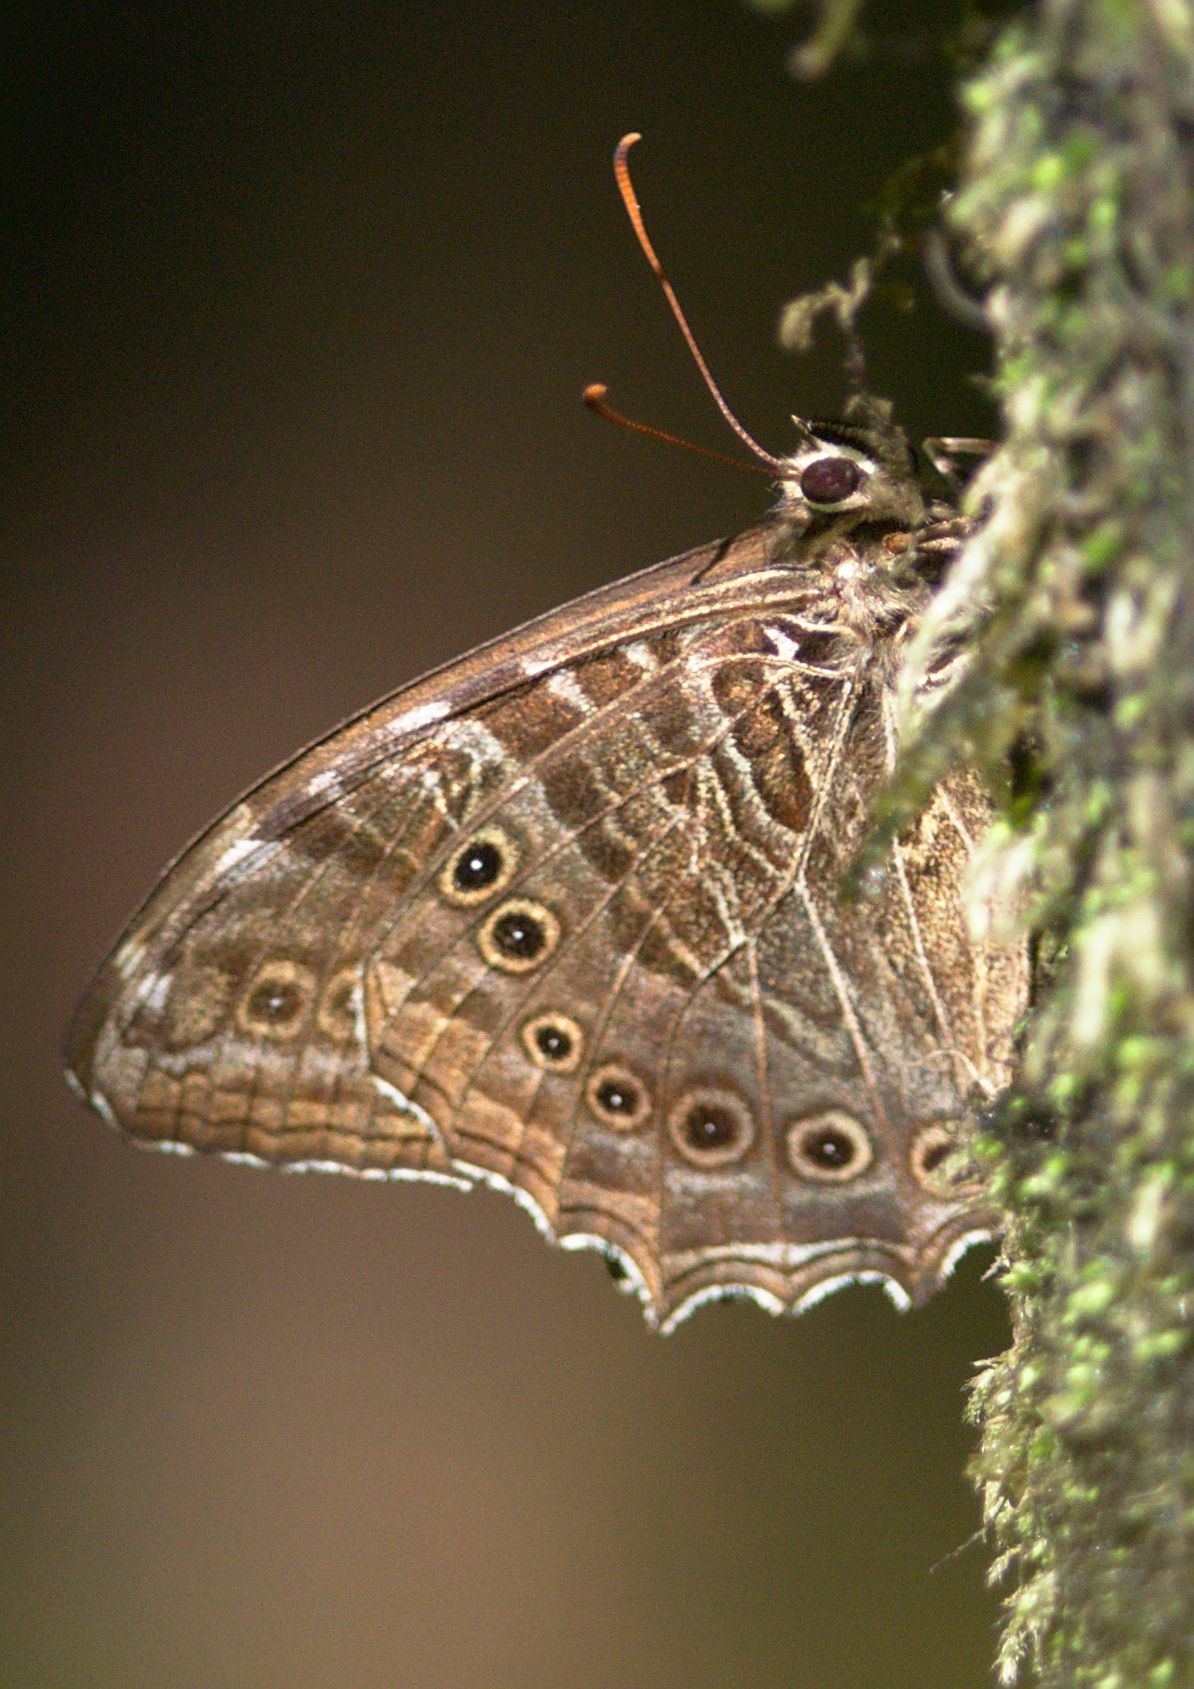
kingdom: Animalia
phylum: Arthropoda
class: Insecta
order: Lepidoptera
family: Nymphalidae
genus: Neope
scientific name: Neope yama
